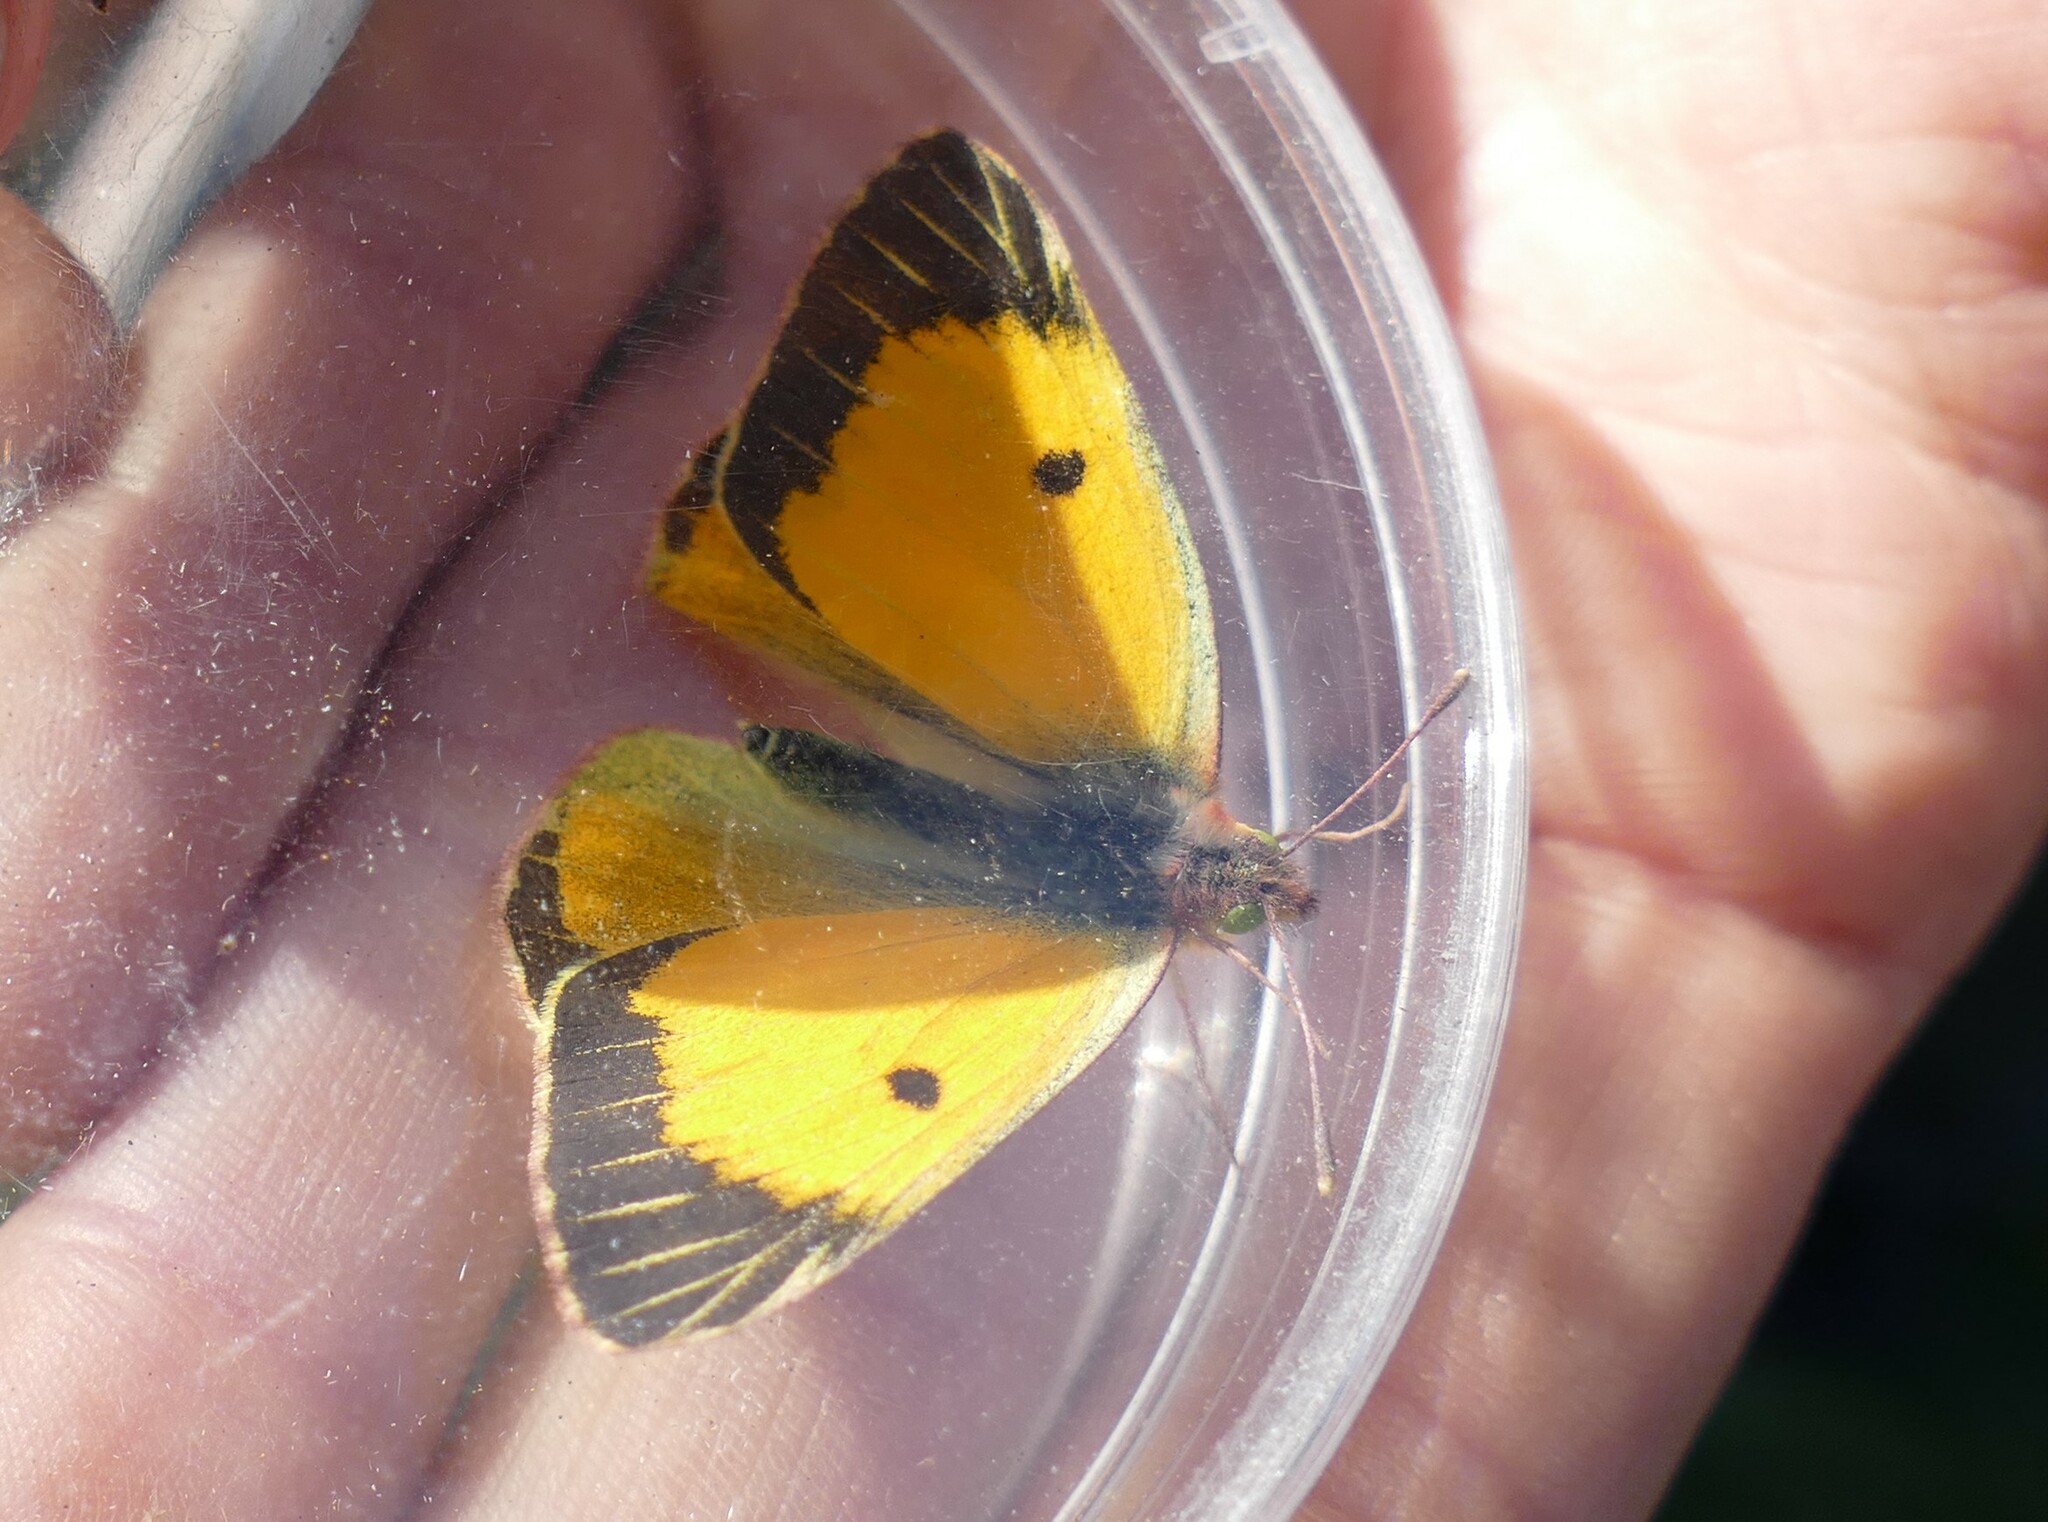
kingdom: Animalia
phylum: Arthropoda
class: Insecta
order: Lepidoptera
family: Pieridae
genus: Colias
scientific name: Colias croceus
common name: Clouded yellow
